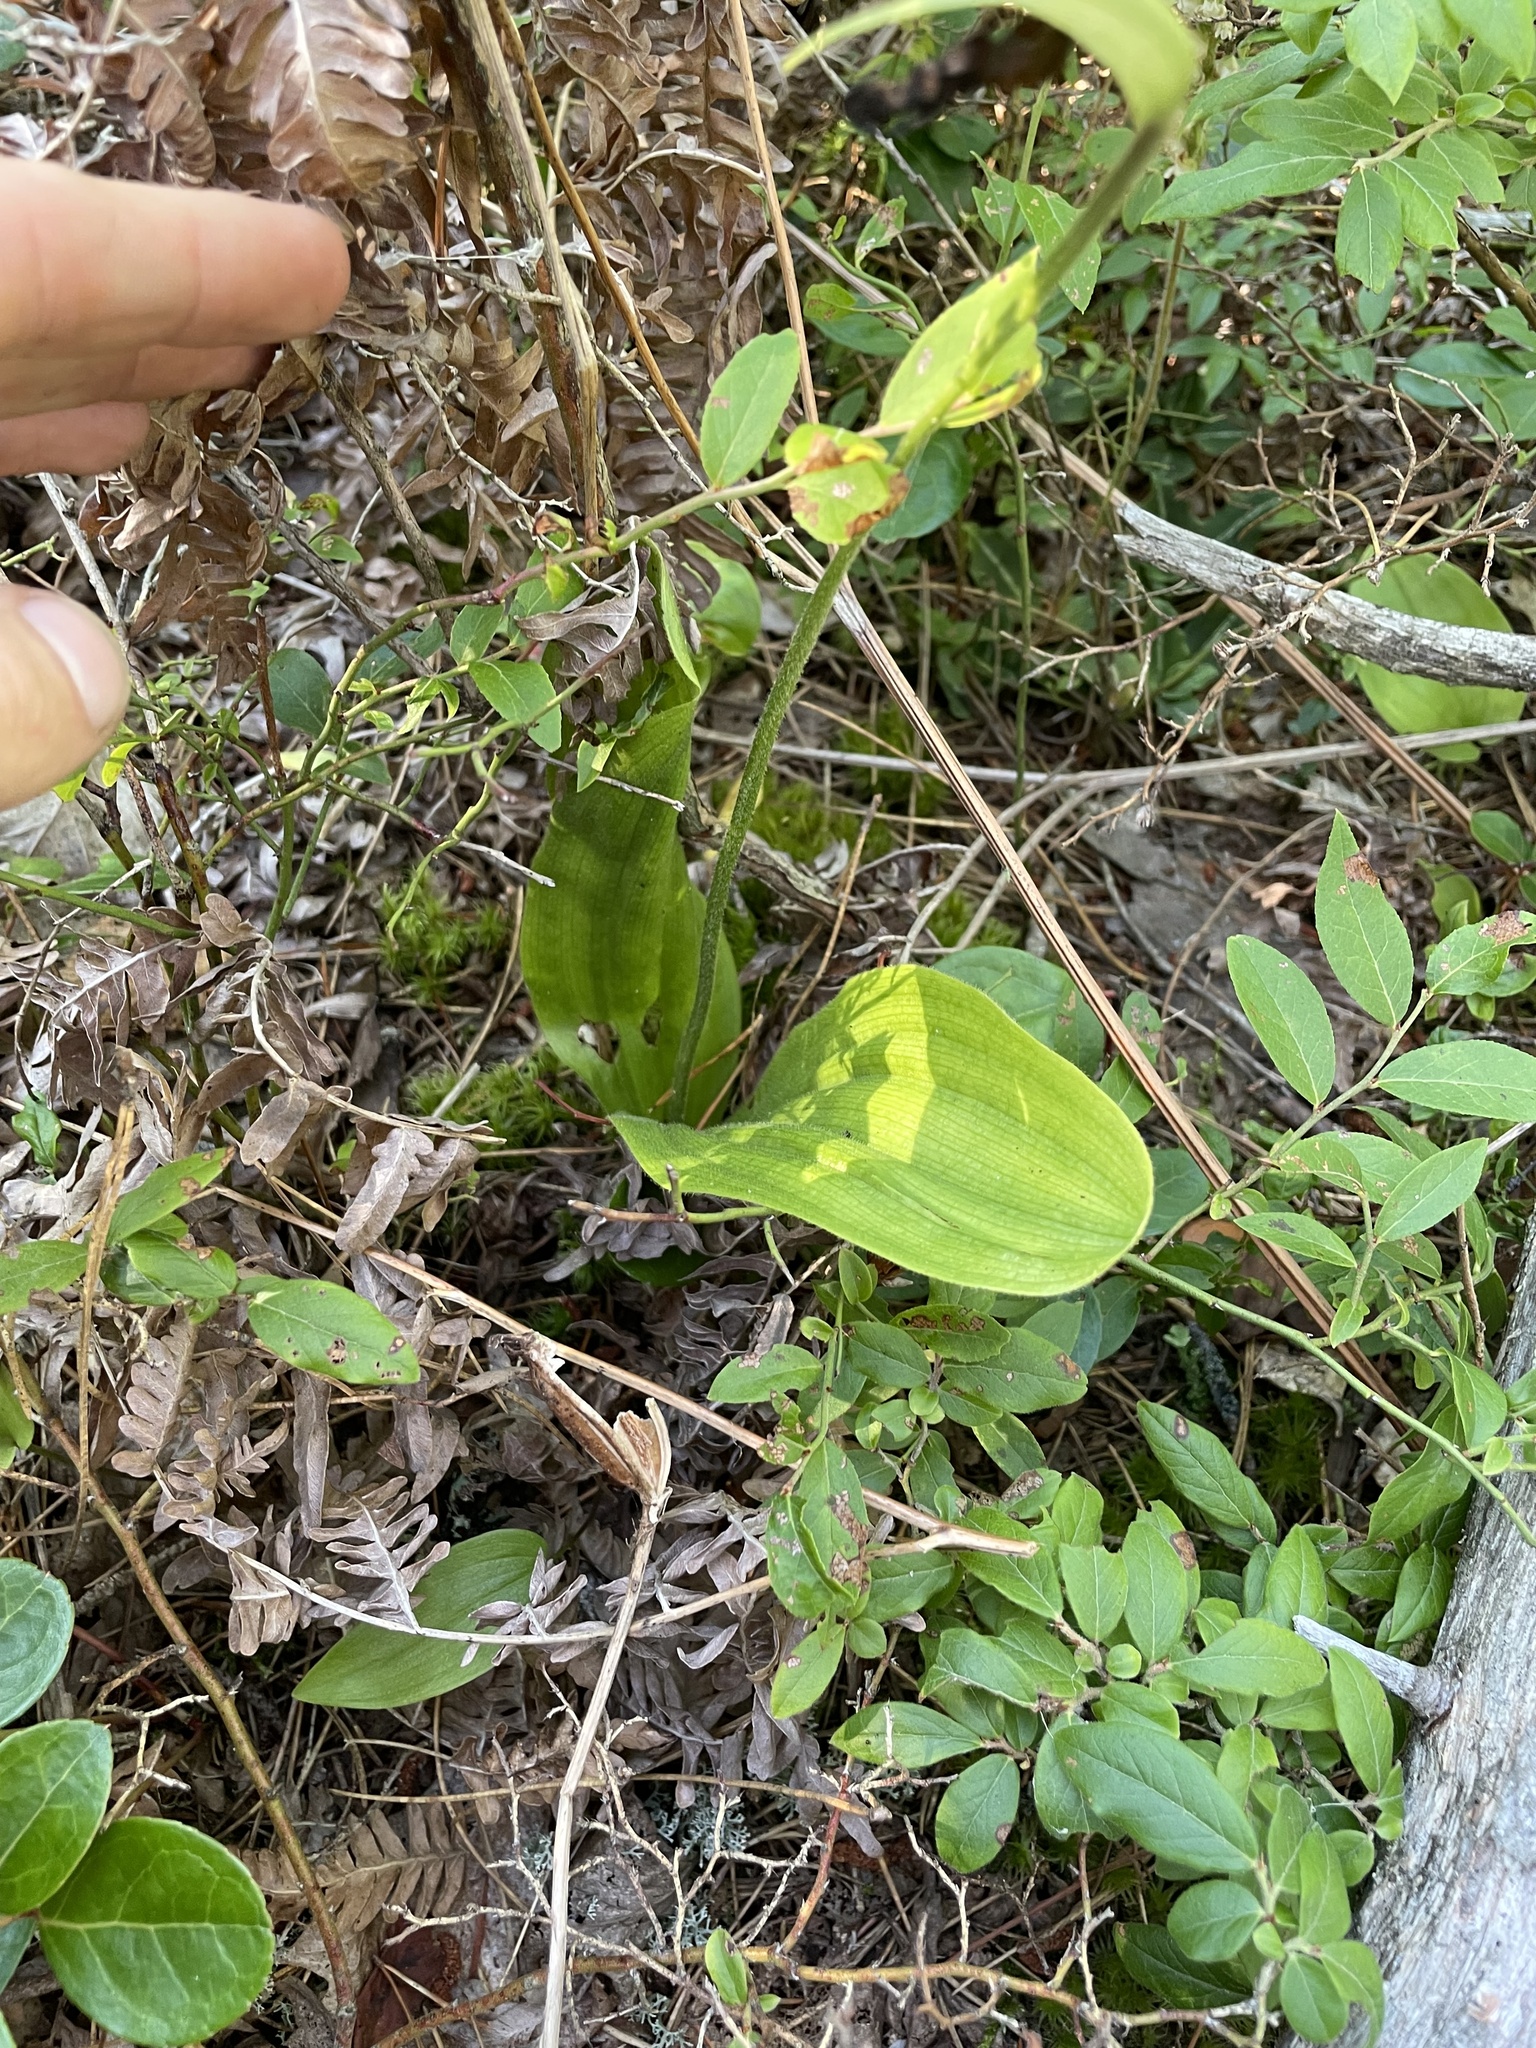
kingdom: Plantae
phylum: Tracheophyta
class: Liliopsida
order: Asparagales
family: Orchidaceae
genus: Cypripedium
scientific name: Cypripedium acaule
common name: Pink lady's-slipper
